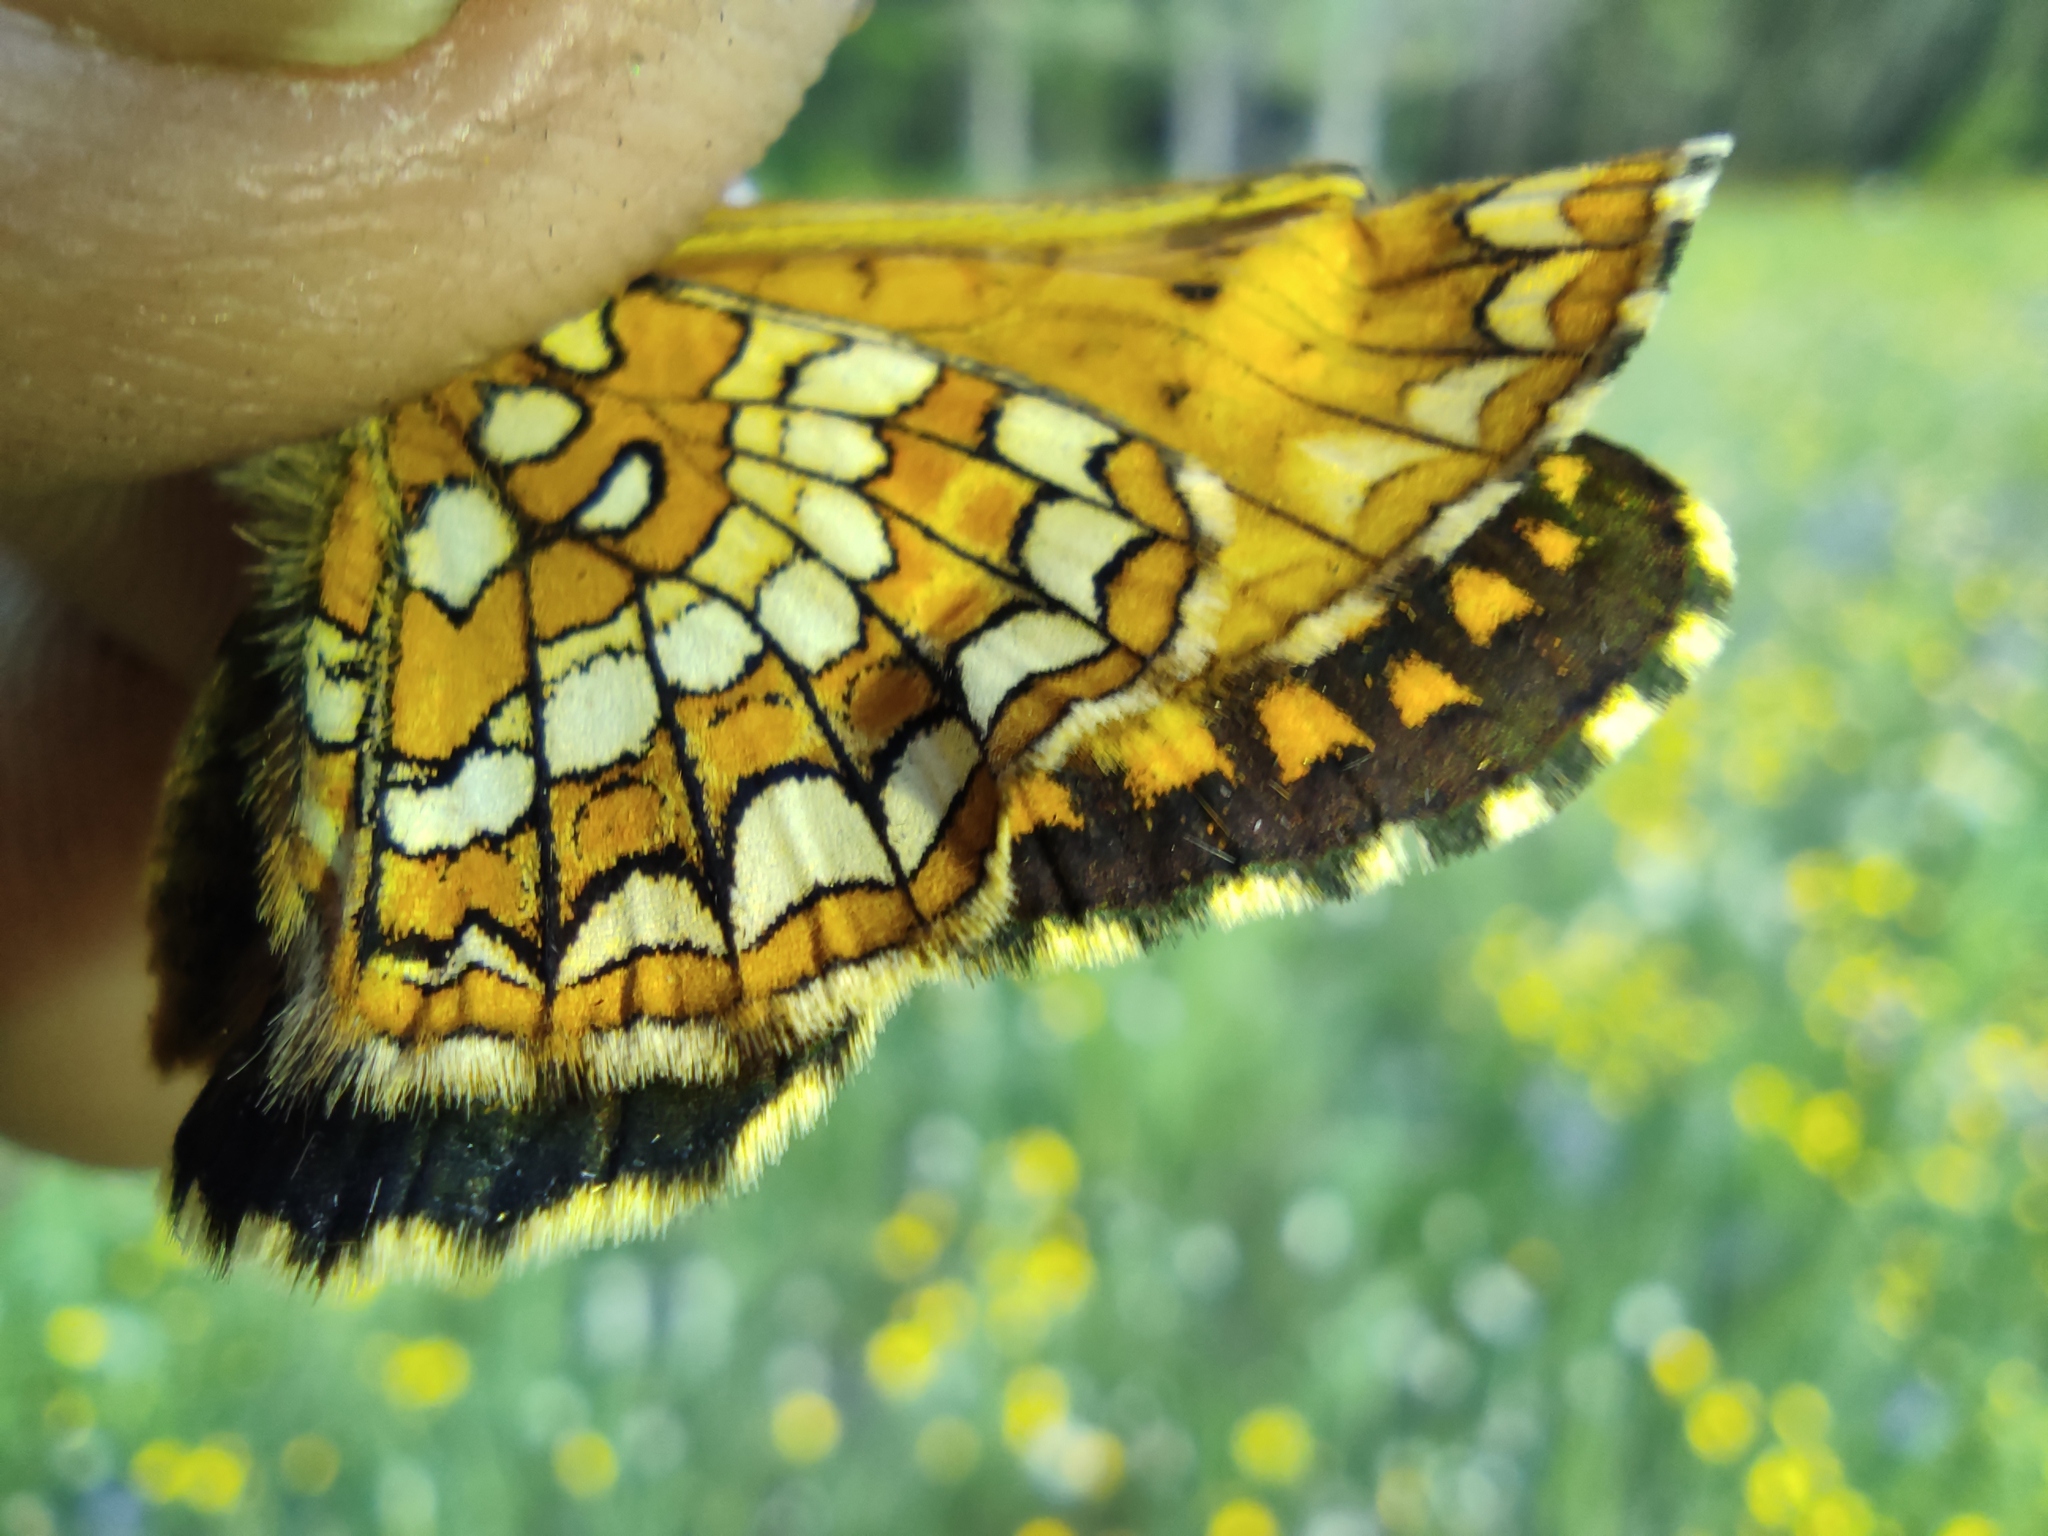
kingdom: Animalia
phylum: Arthropoda
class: Insecta
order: Lepidoptera
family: Nymphalidae
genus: Melitaea
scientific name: Melitaea arcesia
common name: Blackvein fritillary
